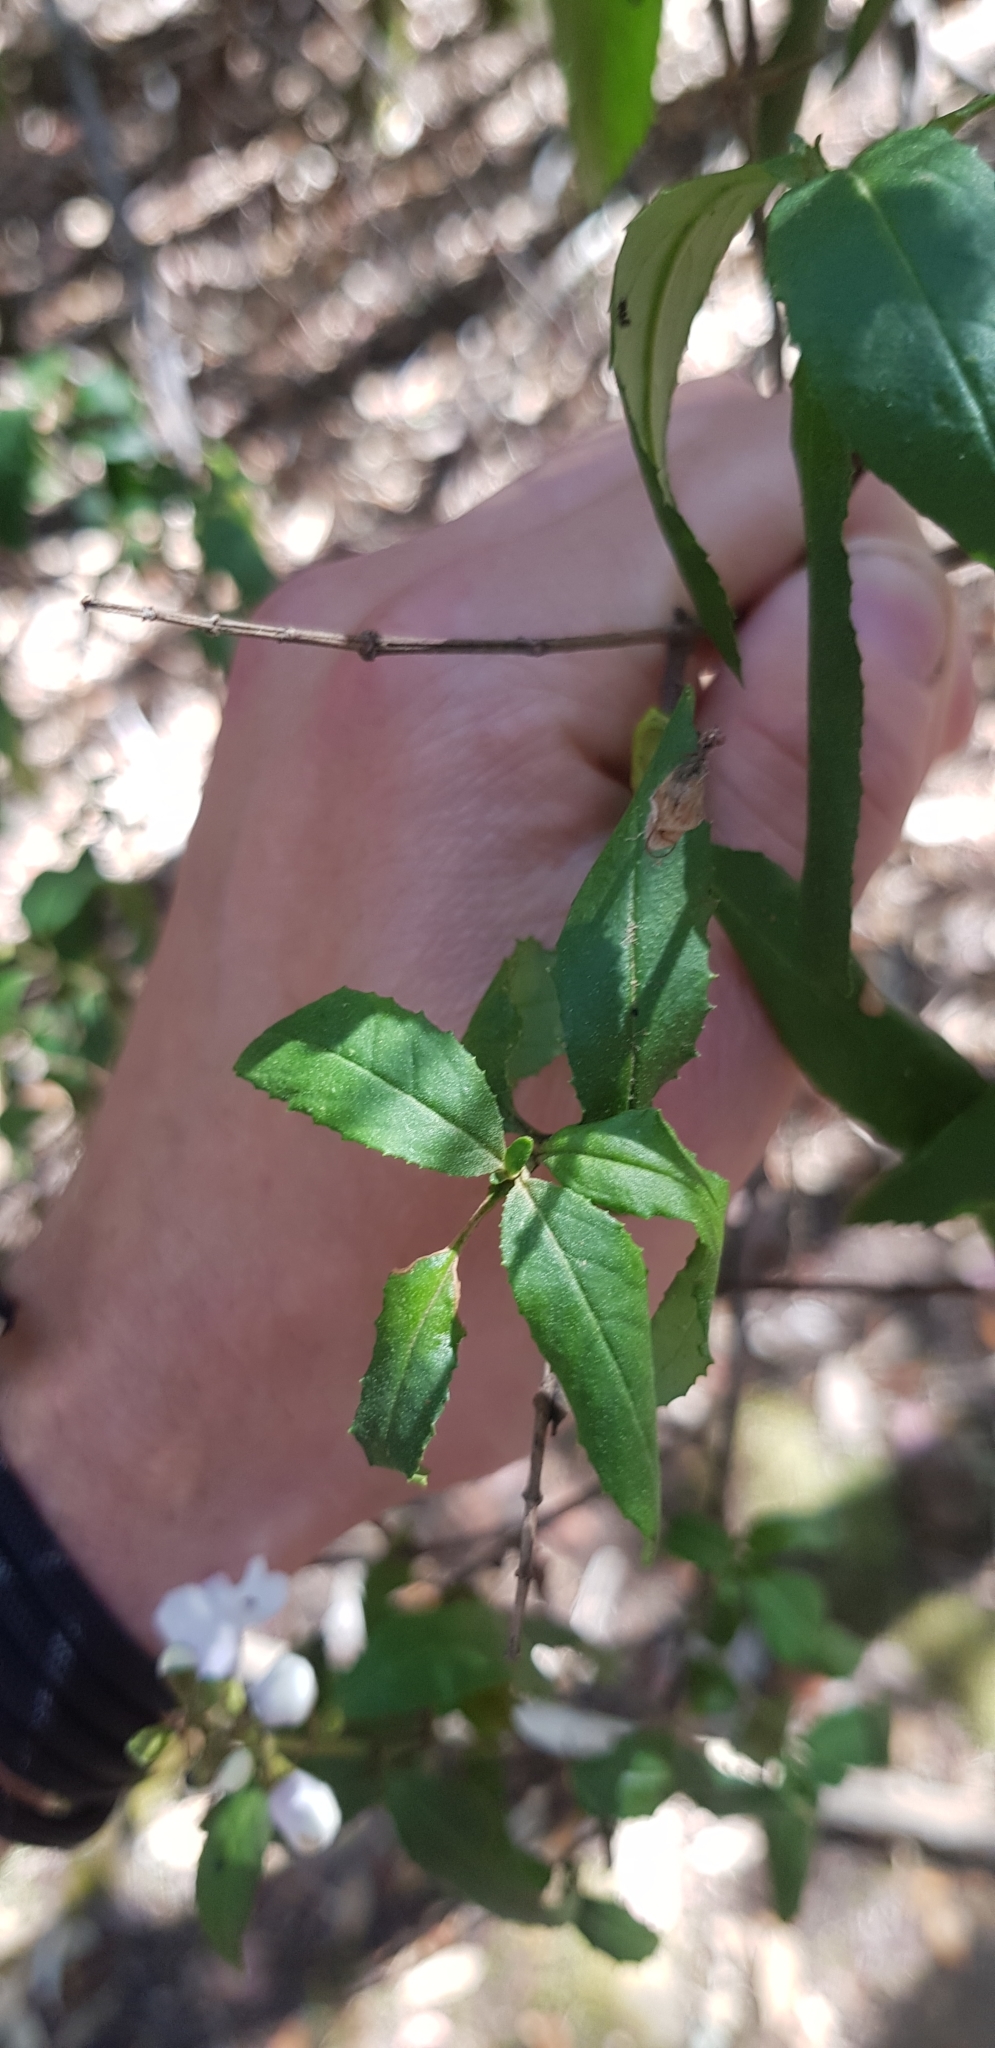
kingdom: Plantae
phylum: Tracheophyta
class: Magnoliopsida
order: Lamiales
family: Lamiaceae
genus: Prostanthera
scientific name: Prostanthera lasianthos
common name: Mountain-lilac
